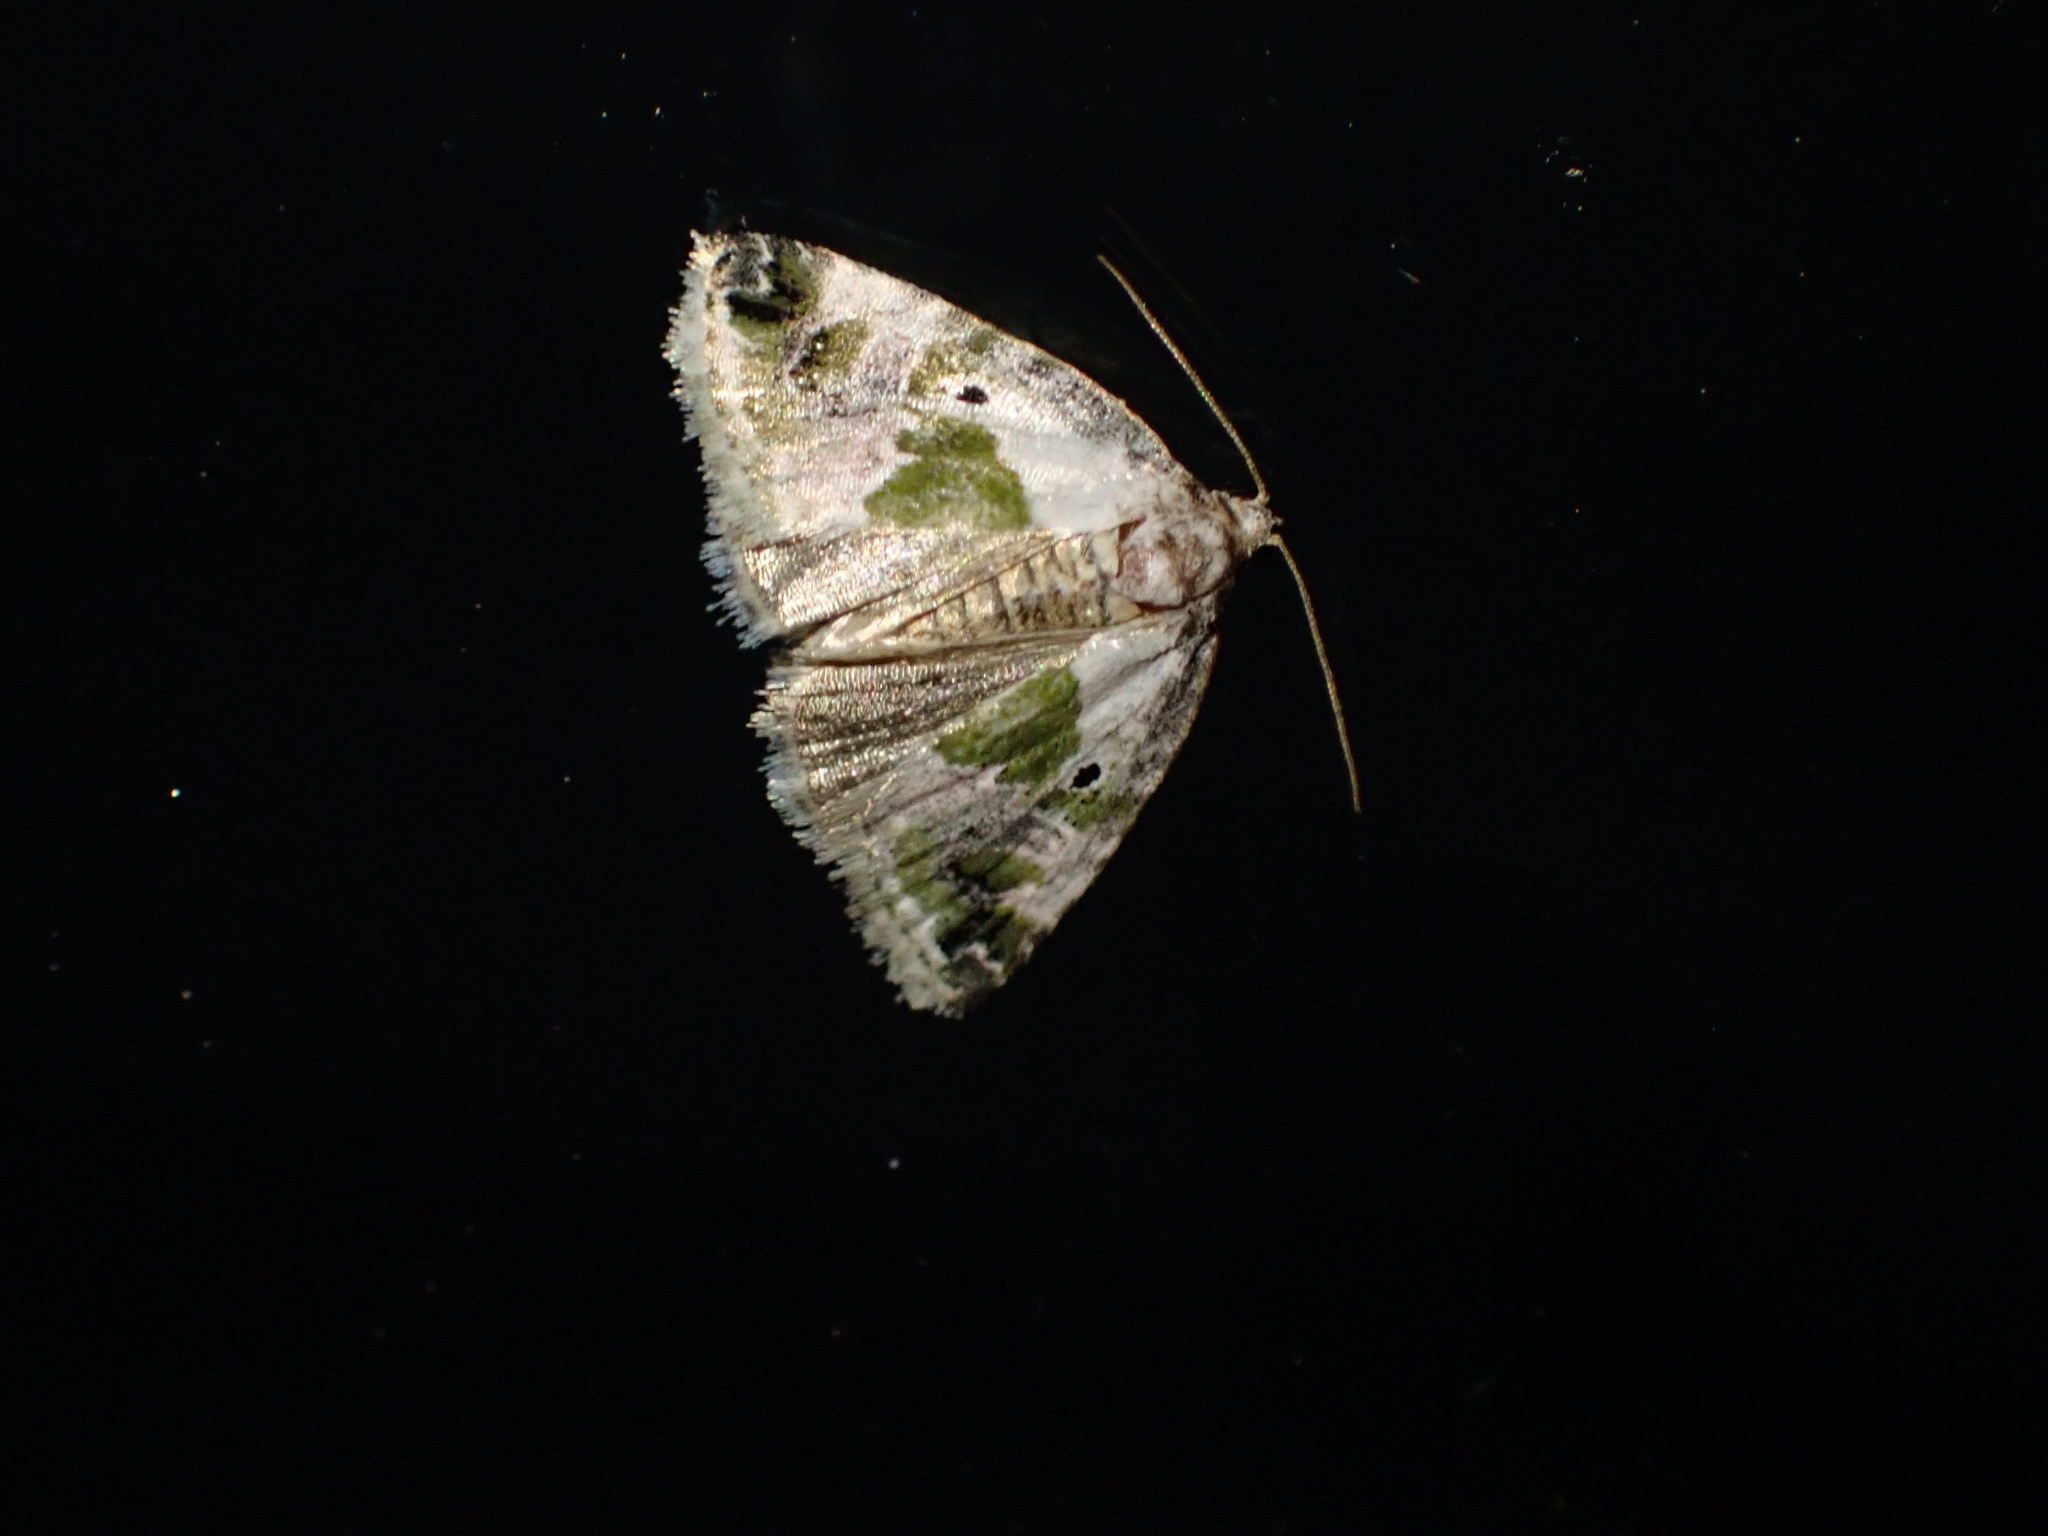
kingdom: Animalia
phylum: Arthropoda
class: Insecta
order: Lepidoptera
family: Noctuidae
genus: Maliattha
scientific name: Maliattha synochitis
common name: Black-dotted glyph
